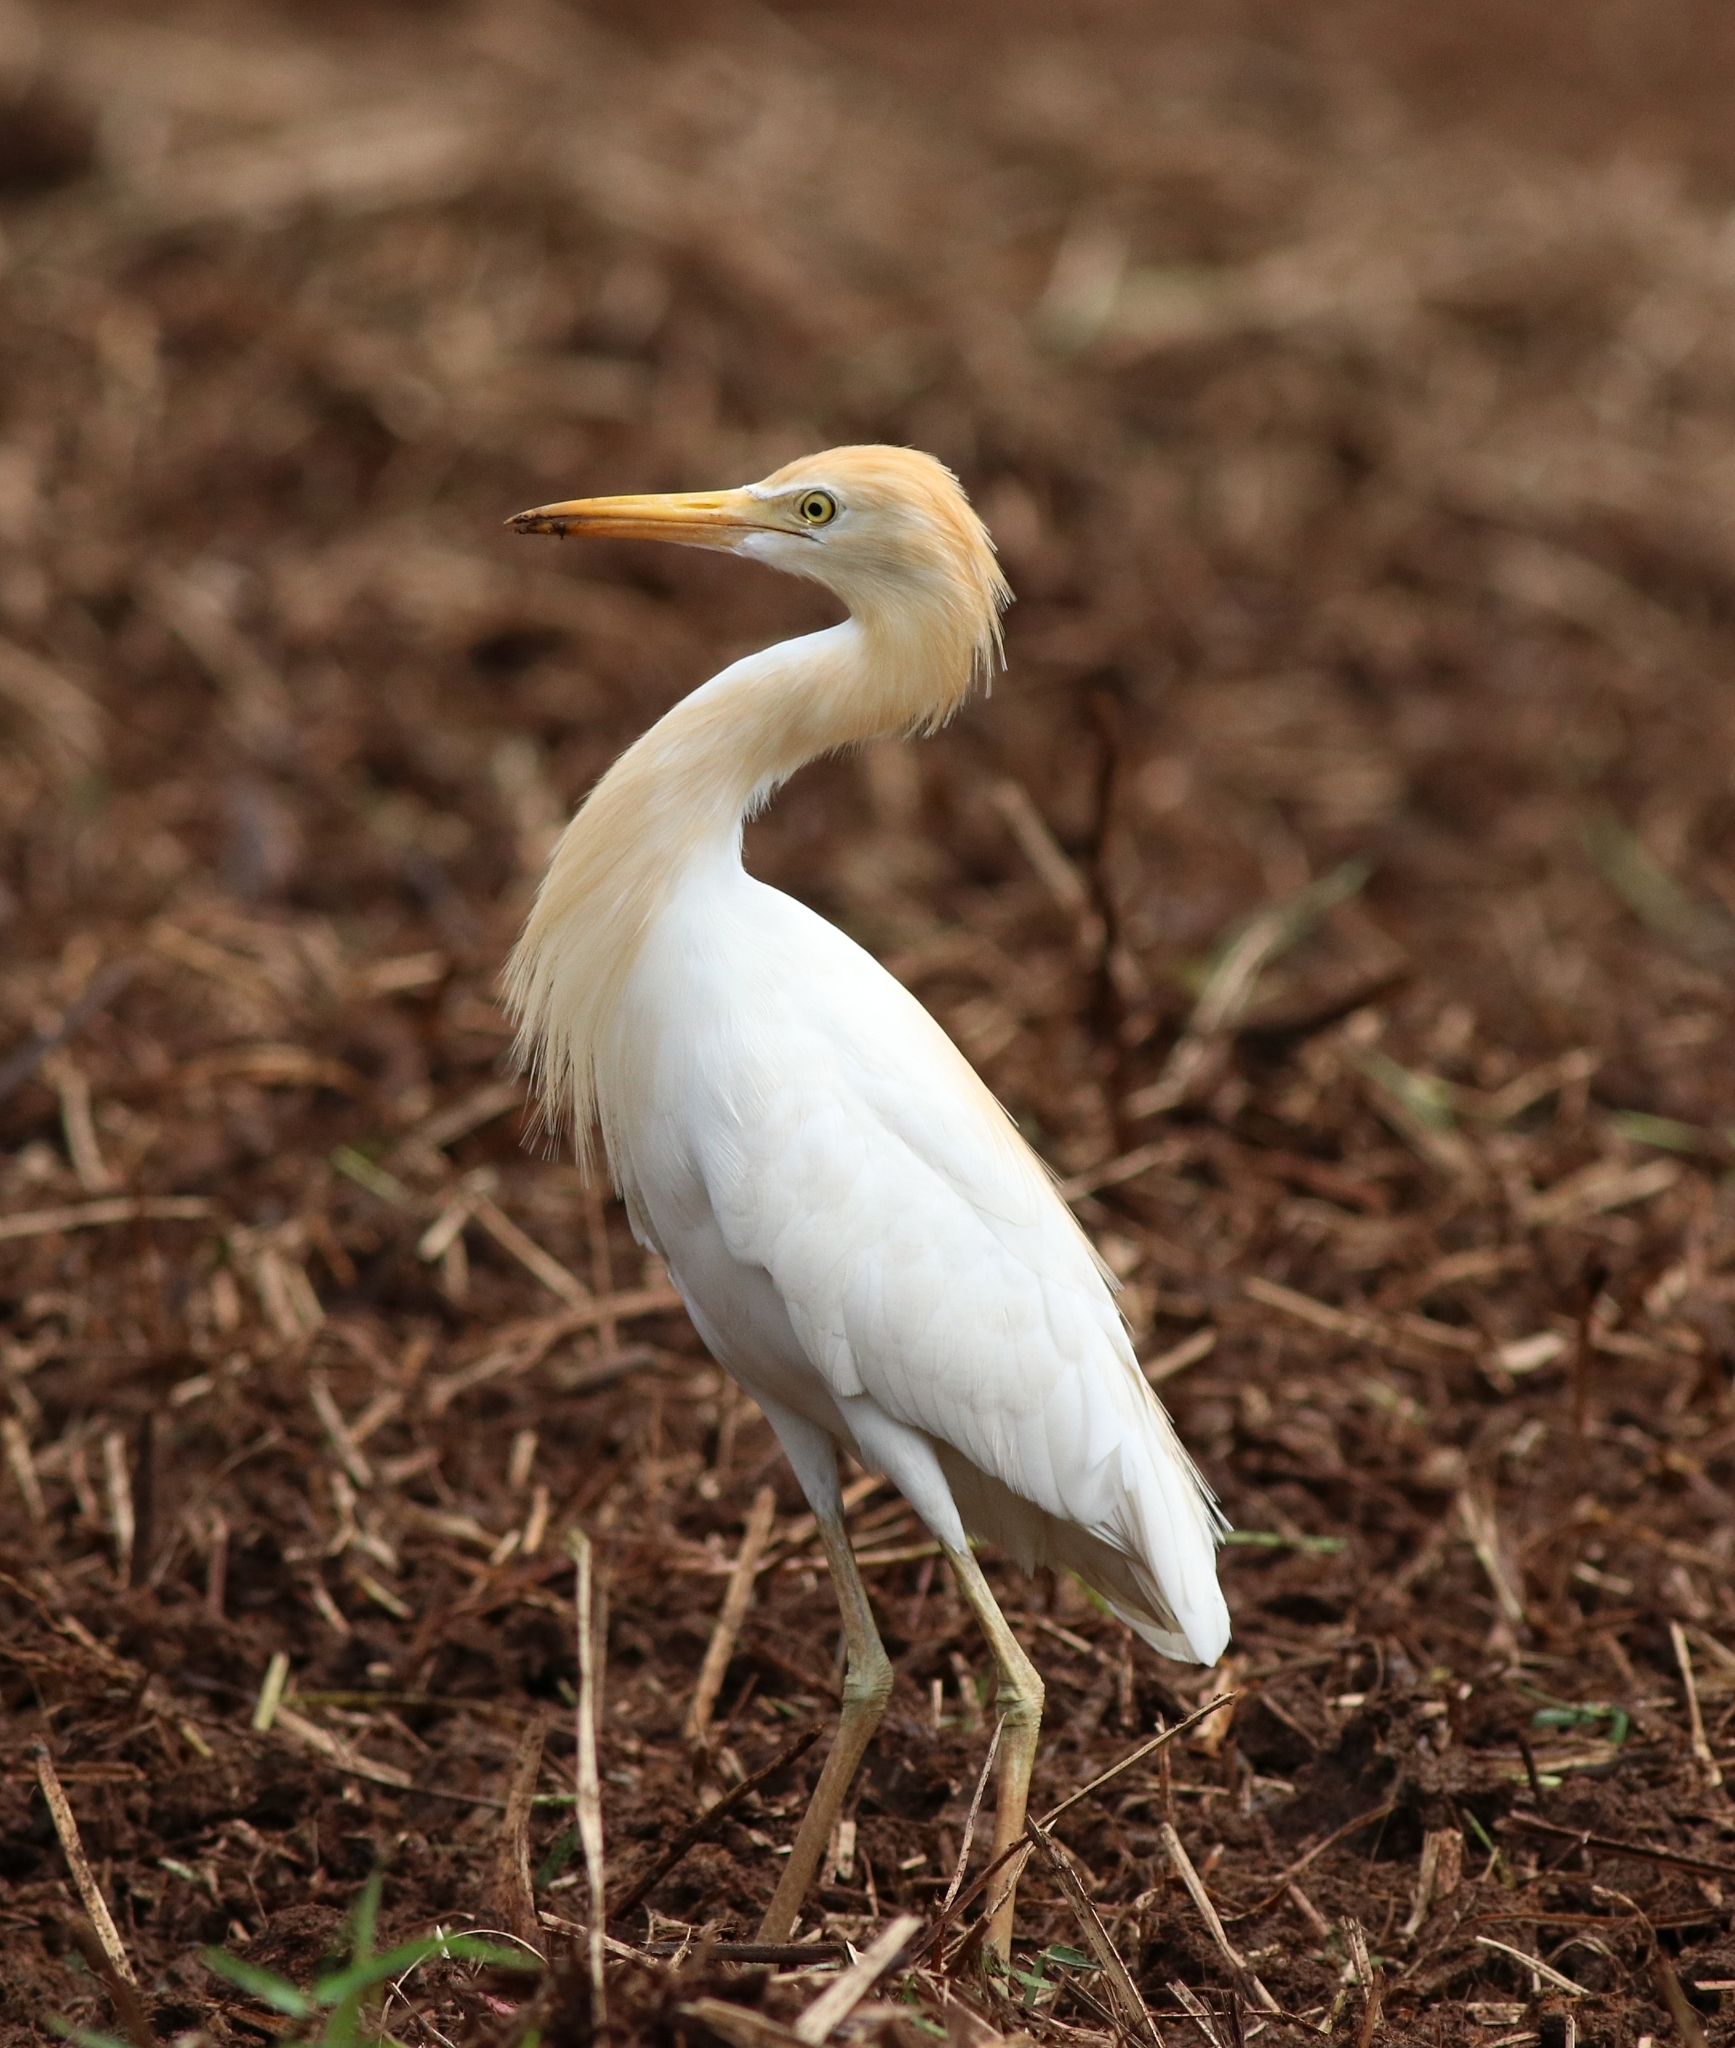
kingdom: Animalia
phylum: Chordata
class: Aves
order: Pelecaniformes
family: Ardeidae
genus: Bubulcus
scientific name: Bubulcus coromandus
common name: Eastern cattle egret
